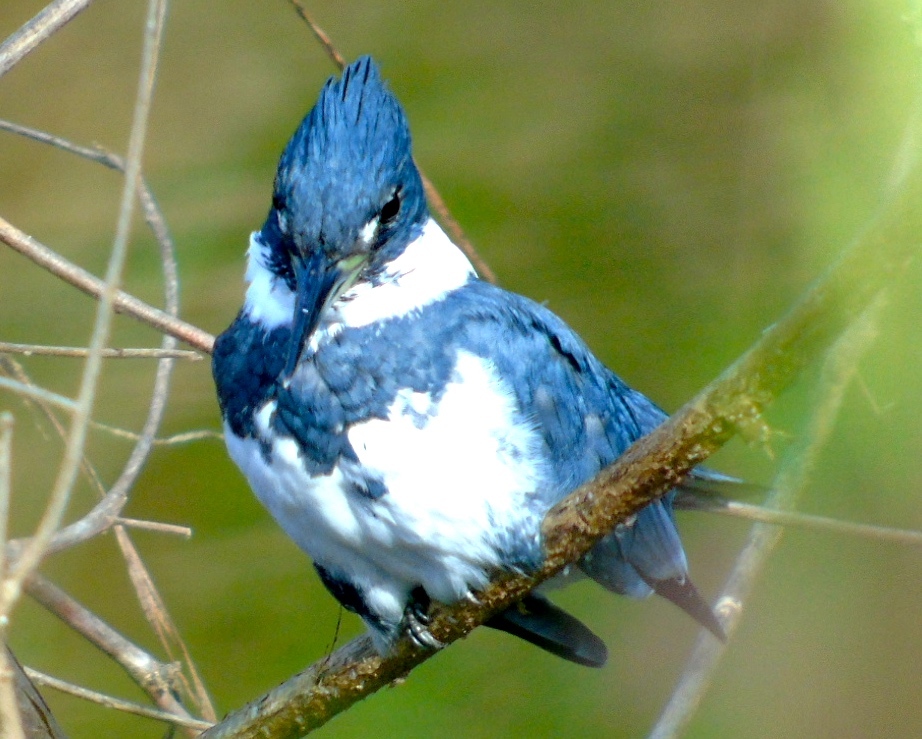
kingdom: Animalia
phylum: Chordata
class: Aves
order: Coraciiformes
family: Alcedinidae
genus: Megaceryle
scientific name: Megaceryle alcyon
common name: Belted kingfisher
